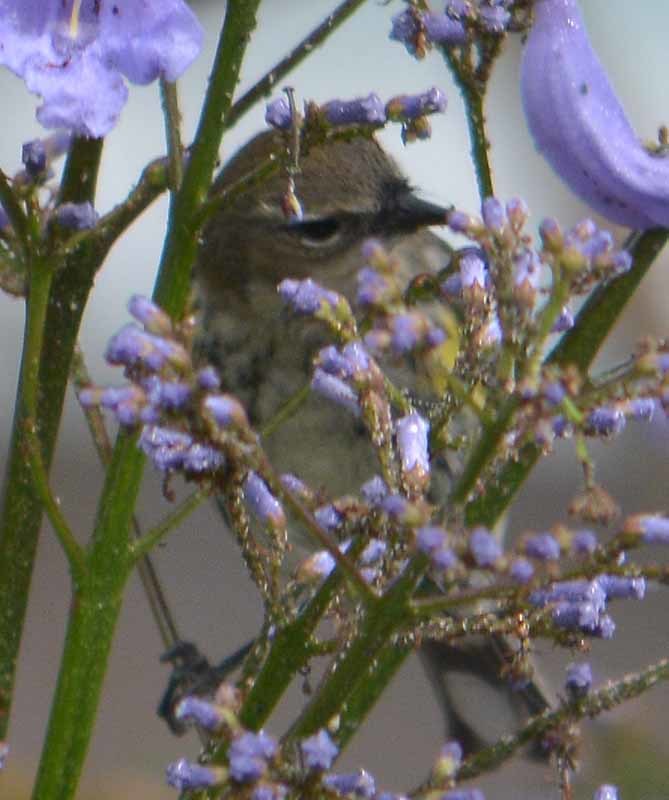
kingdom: Animalia
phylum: Chordata
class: Aves
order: Passeriformes
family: Parulidae
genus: Setophaga
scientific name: Setophaga coronata
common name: Myrtle warbler
